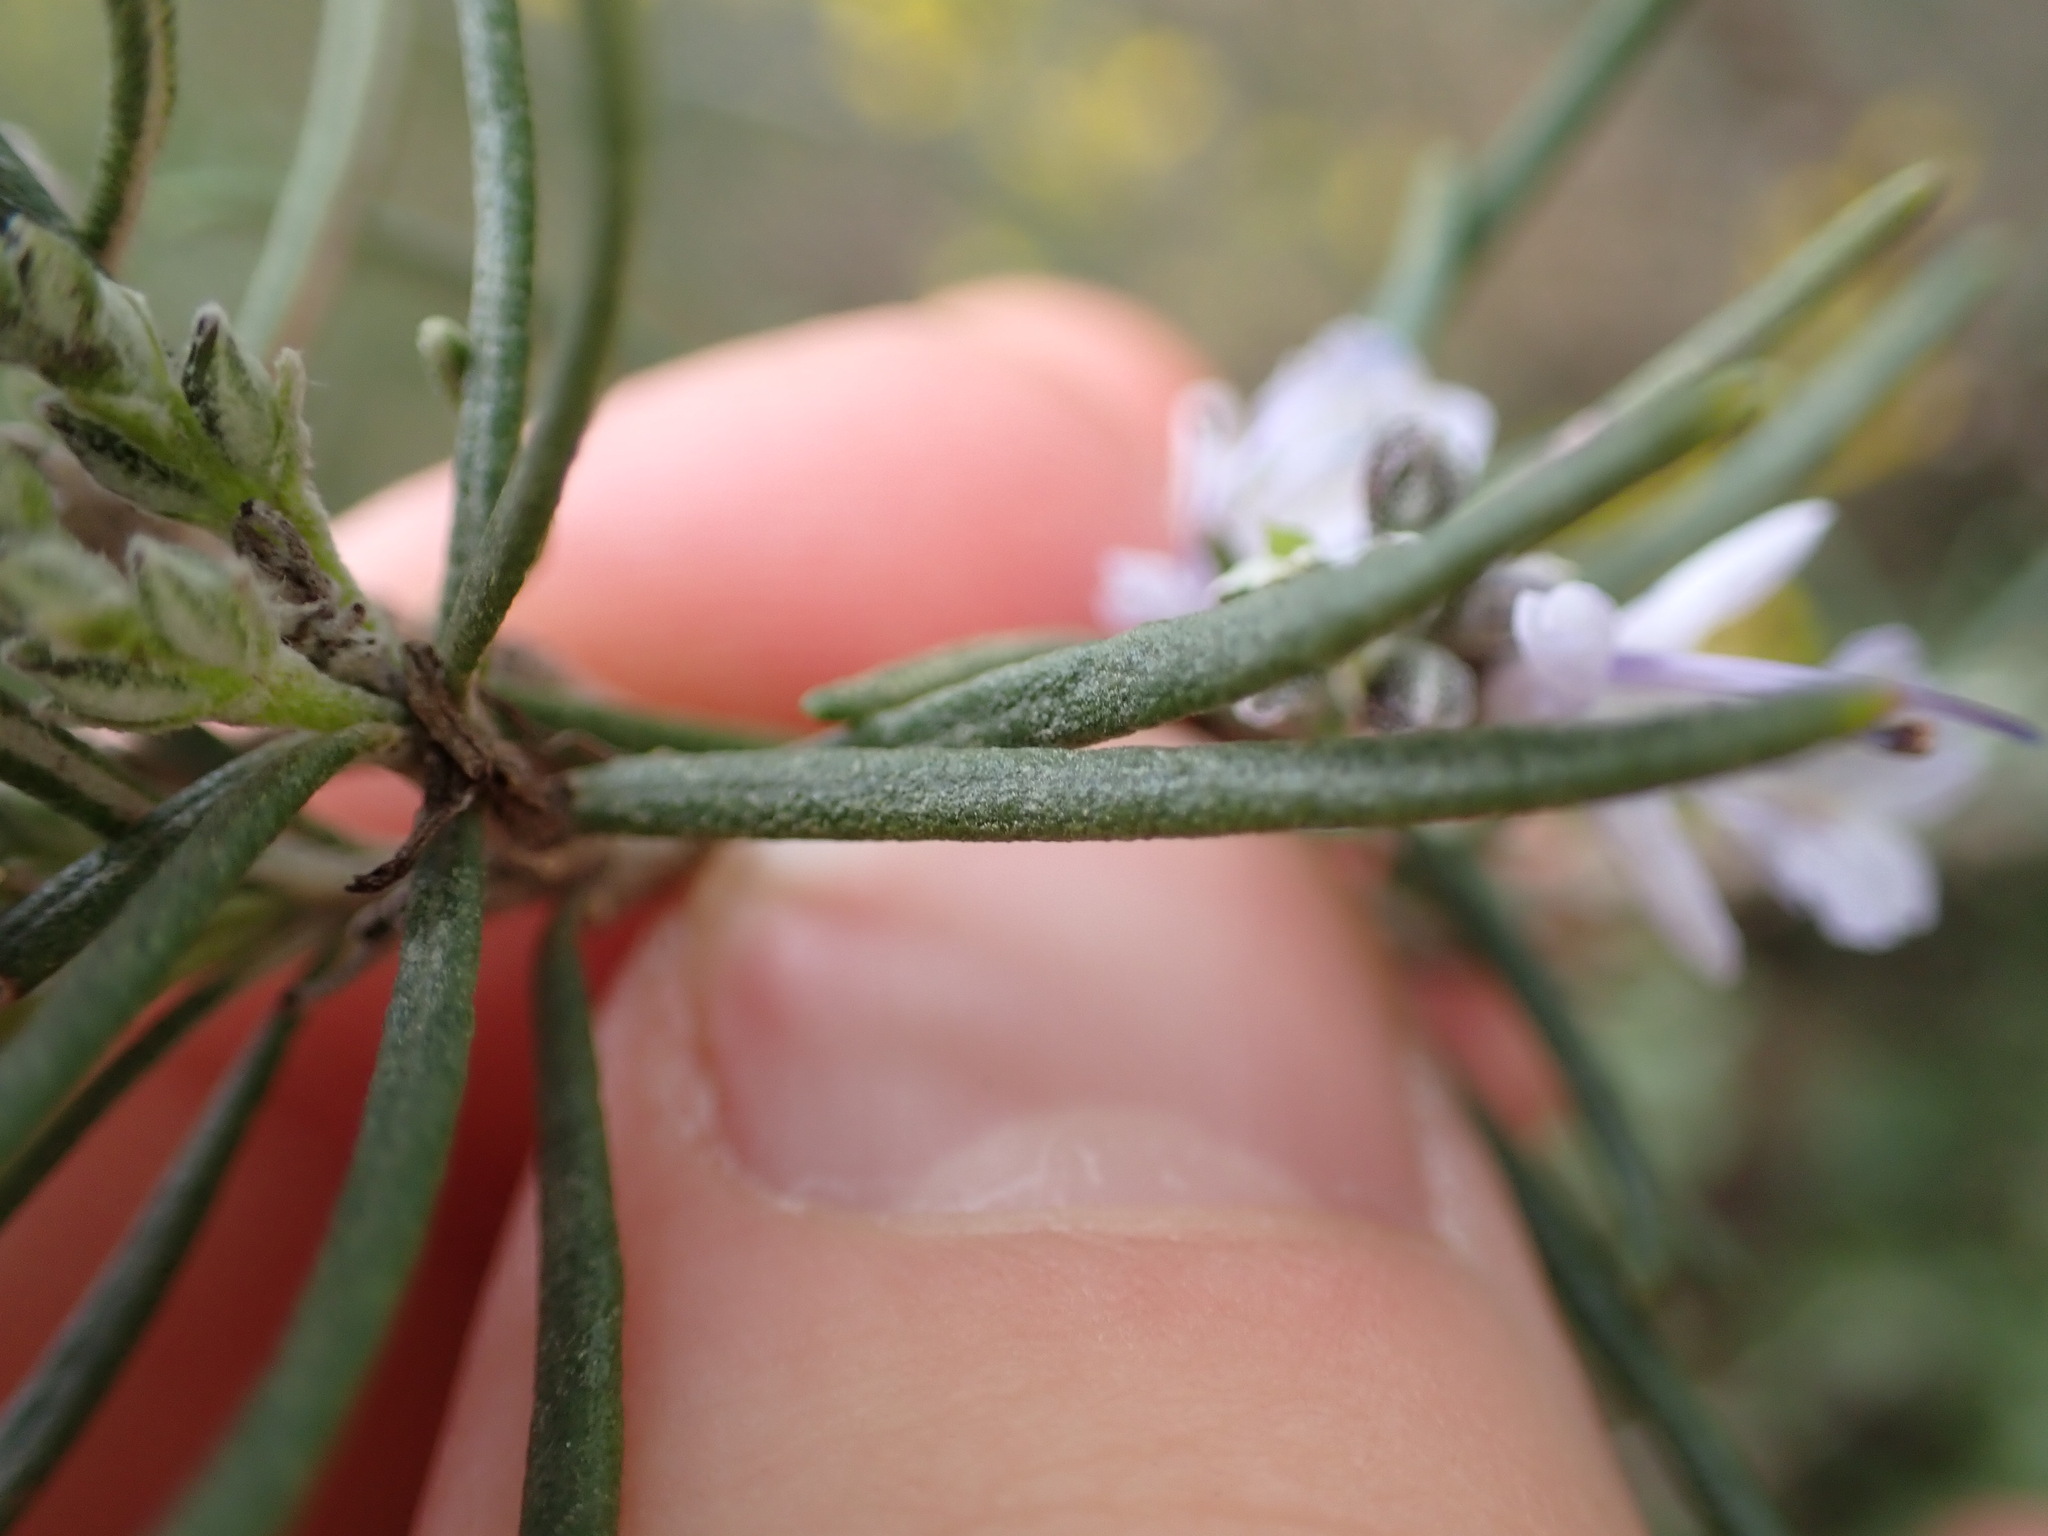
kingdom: Plantae
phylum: Tracheophyta
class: Magnoliopsida
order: Lamiales
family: Lamiaceae
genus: Salvia
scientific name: Salvia rosmarinus
